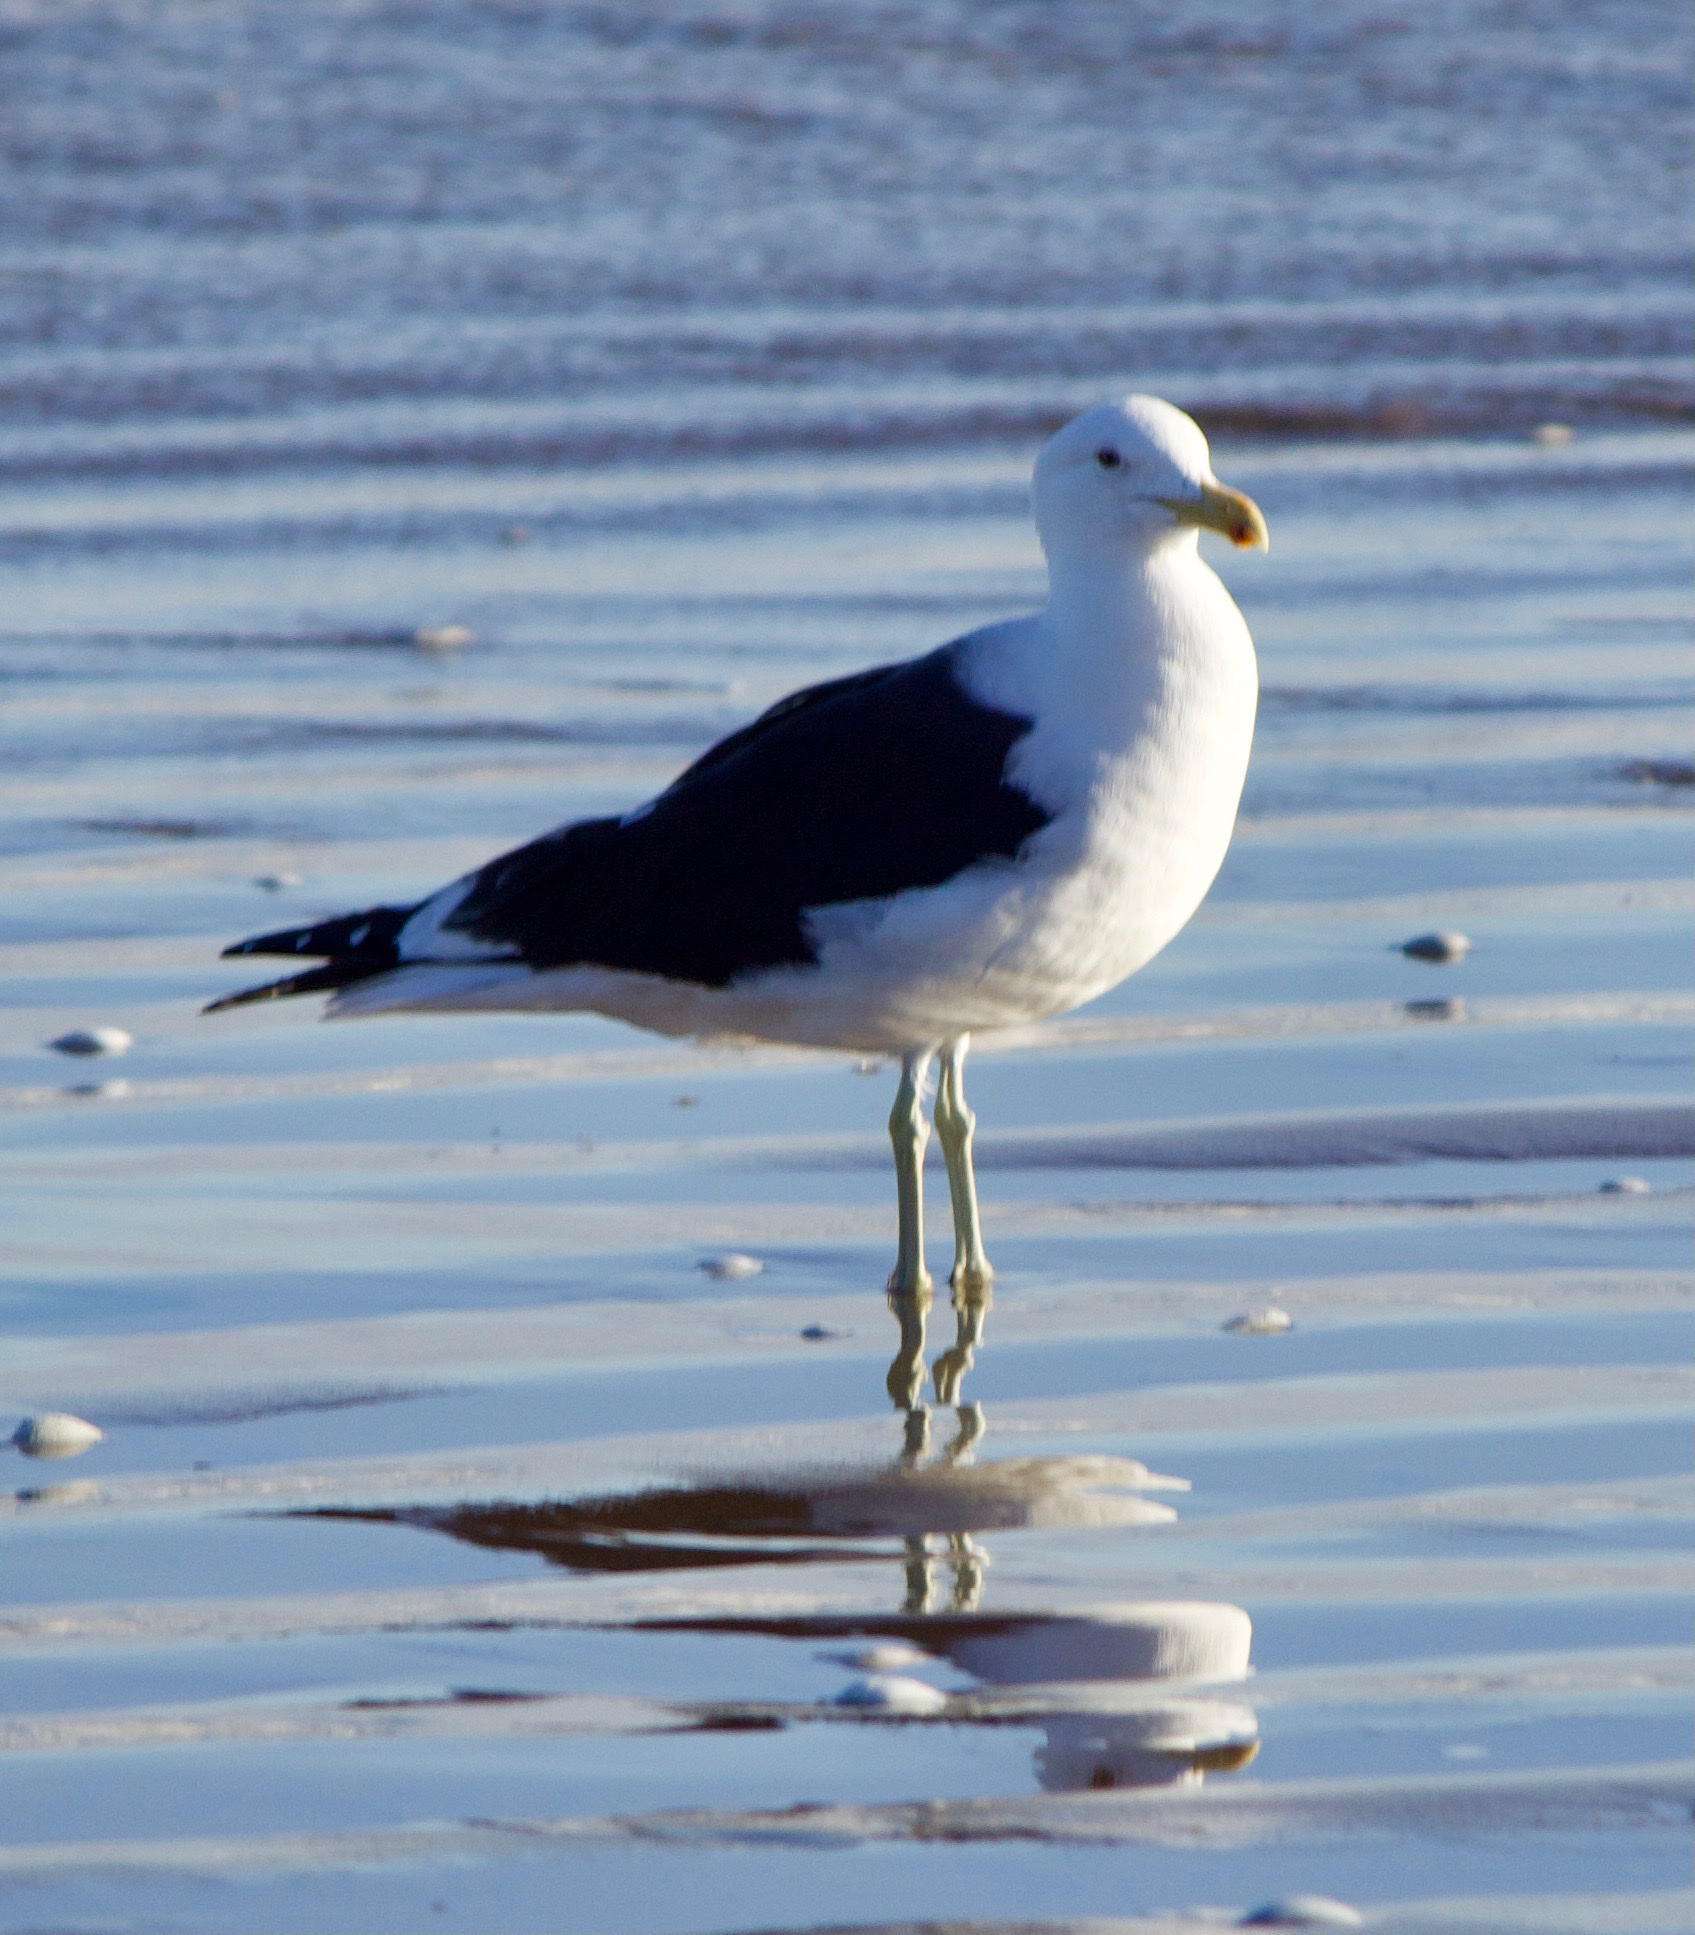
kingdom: Animalia
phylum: Chordata
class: Aves
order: Charadriiformes
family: Laridae
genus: Larus
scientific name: Larus dominicanus
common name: Kelp gull
